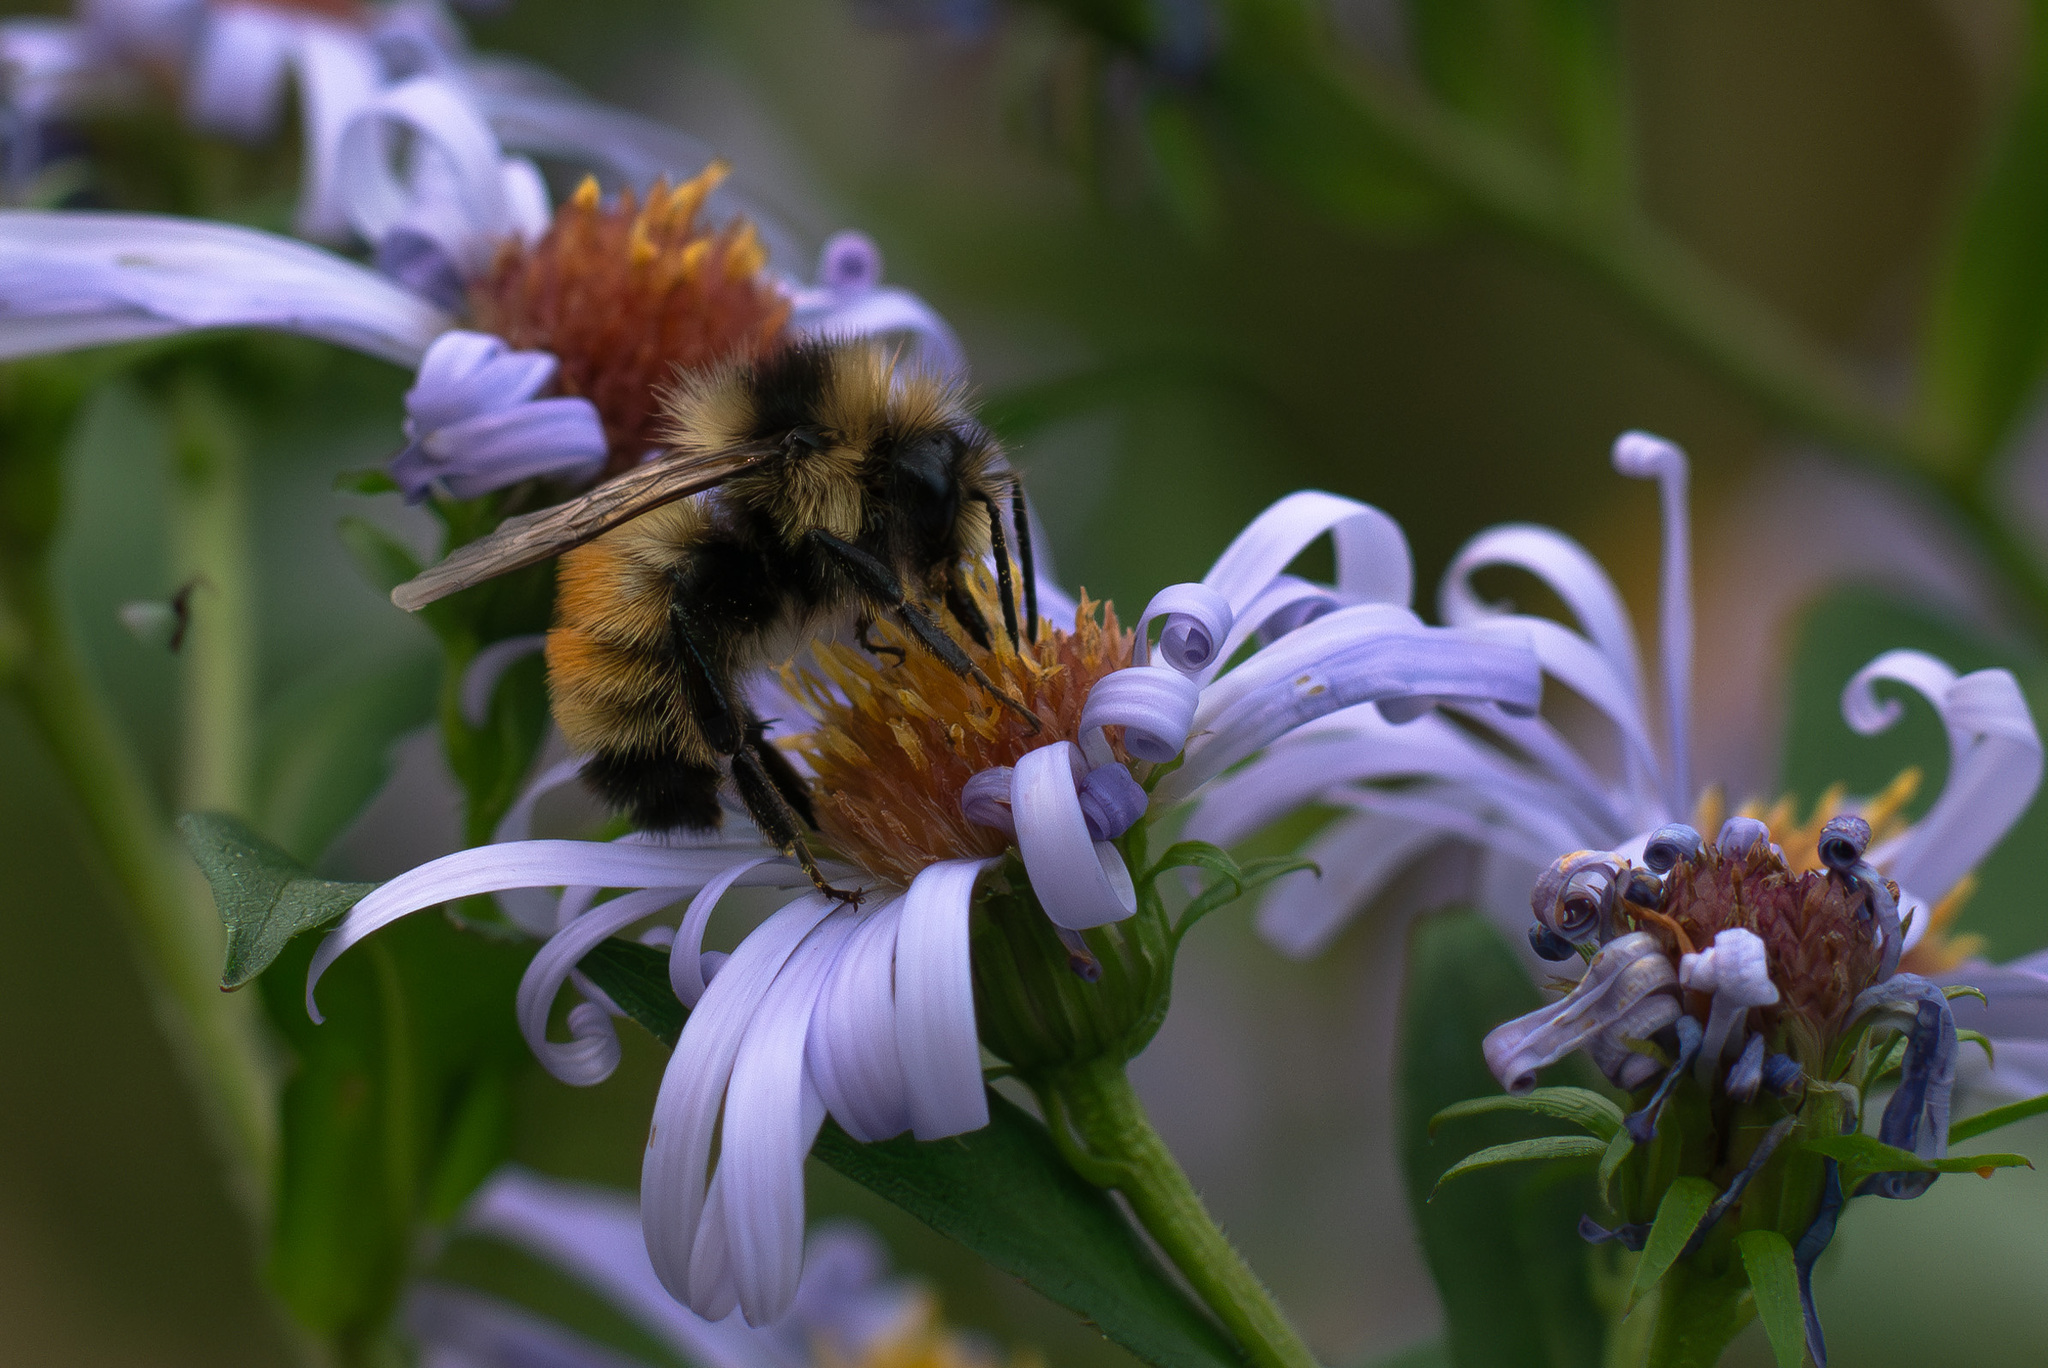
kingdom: Animalia
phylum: Arthropoda
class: Insecta
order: Hymenoptera
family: Apidae
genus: Bombus
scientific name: Bombus ternarius
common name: Tri-colored bumble bee
